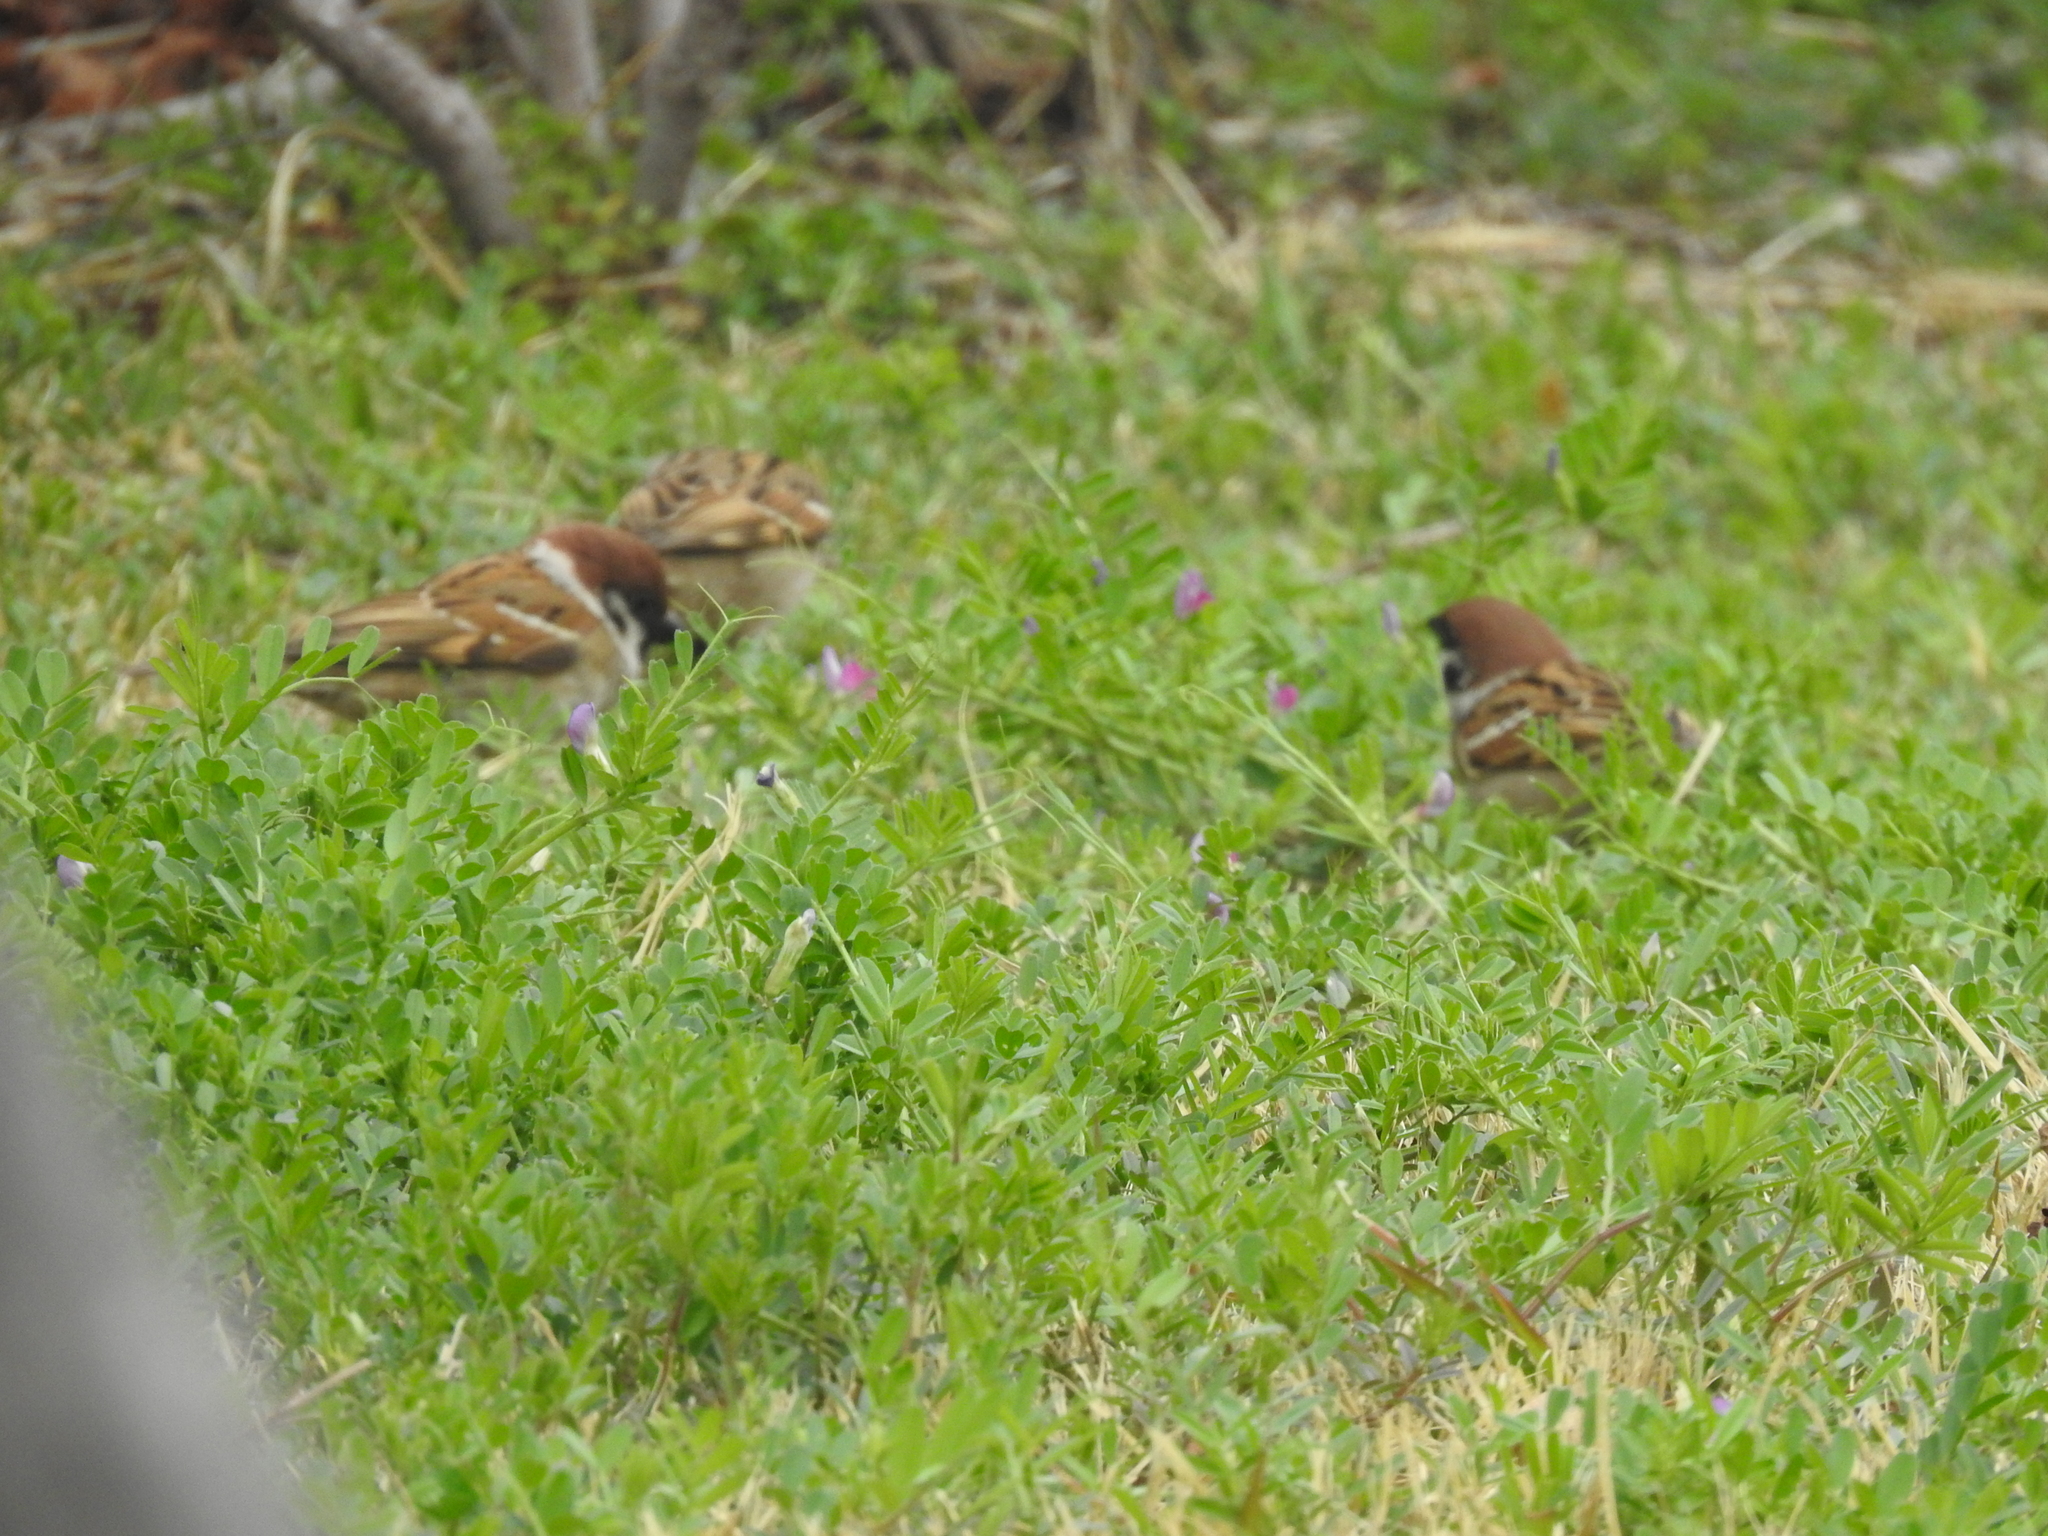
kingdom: Animalia
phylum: Chordata
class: Aves
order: Passeriformes
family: Passeridae
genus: Passer
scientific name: Passer montanus
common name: Eurasian tree sparrow
